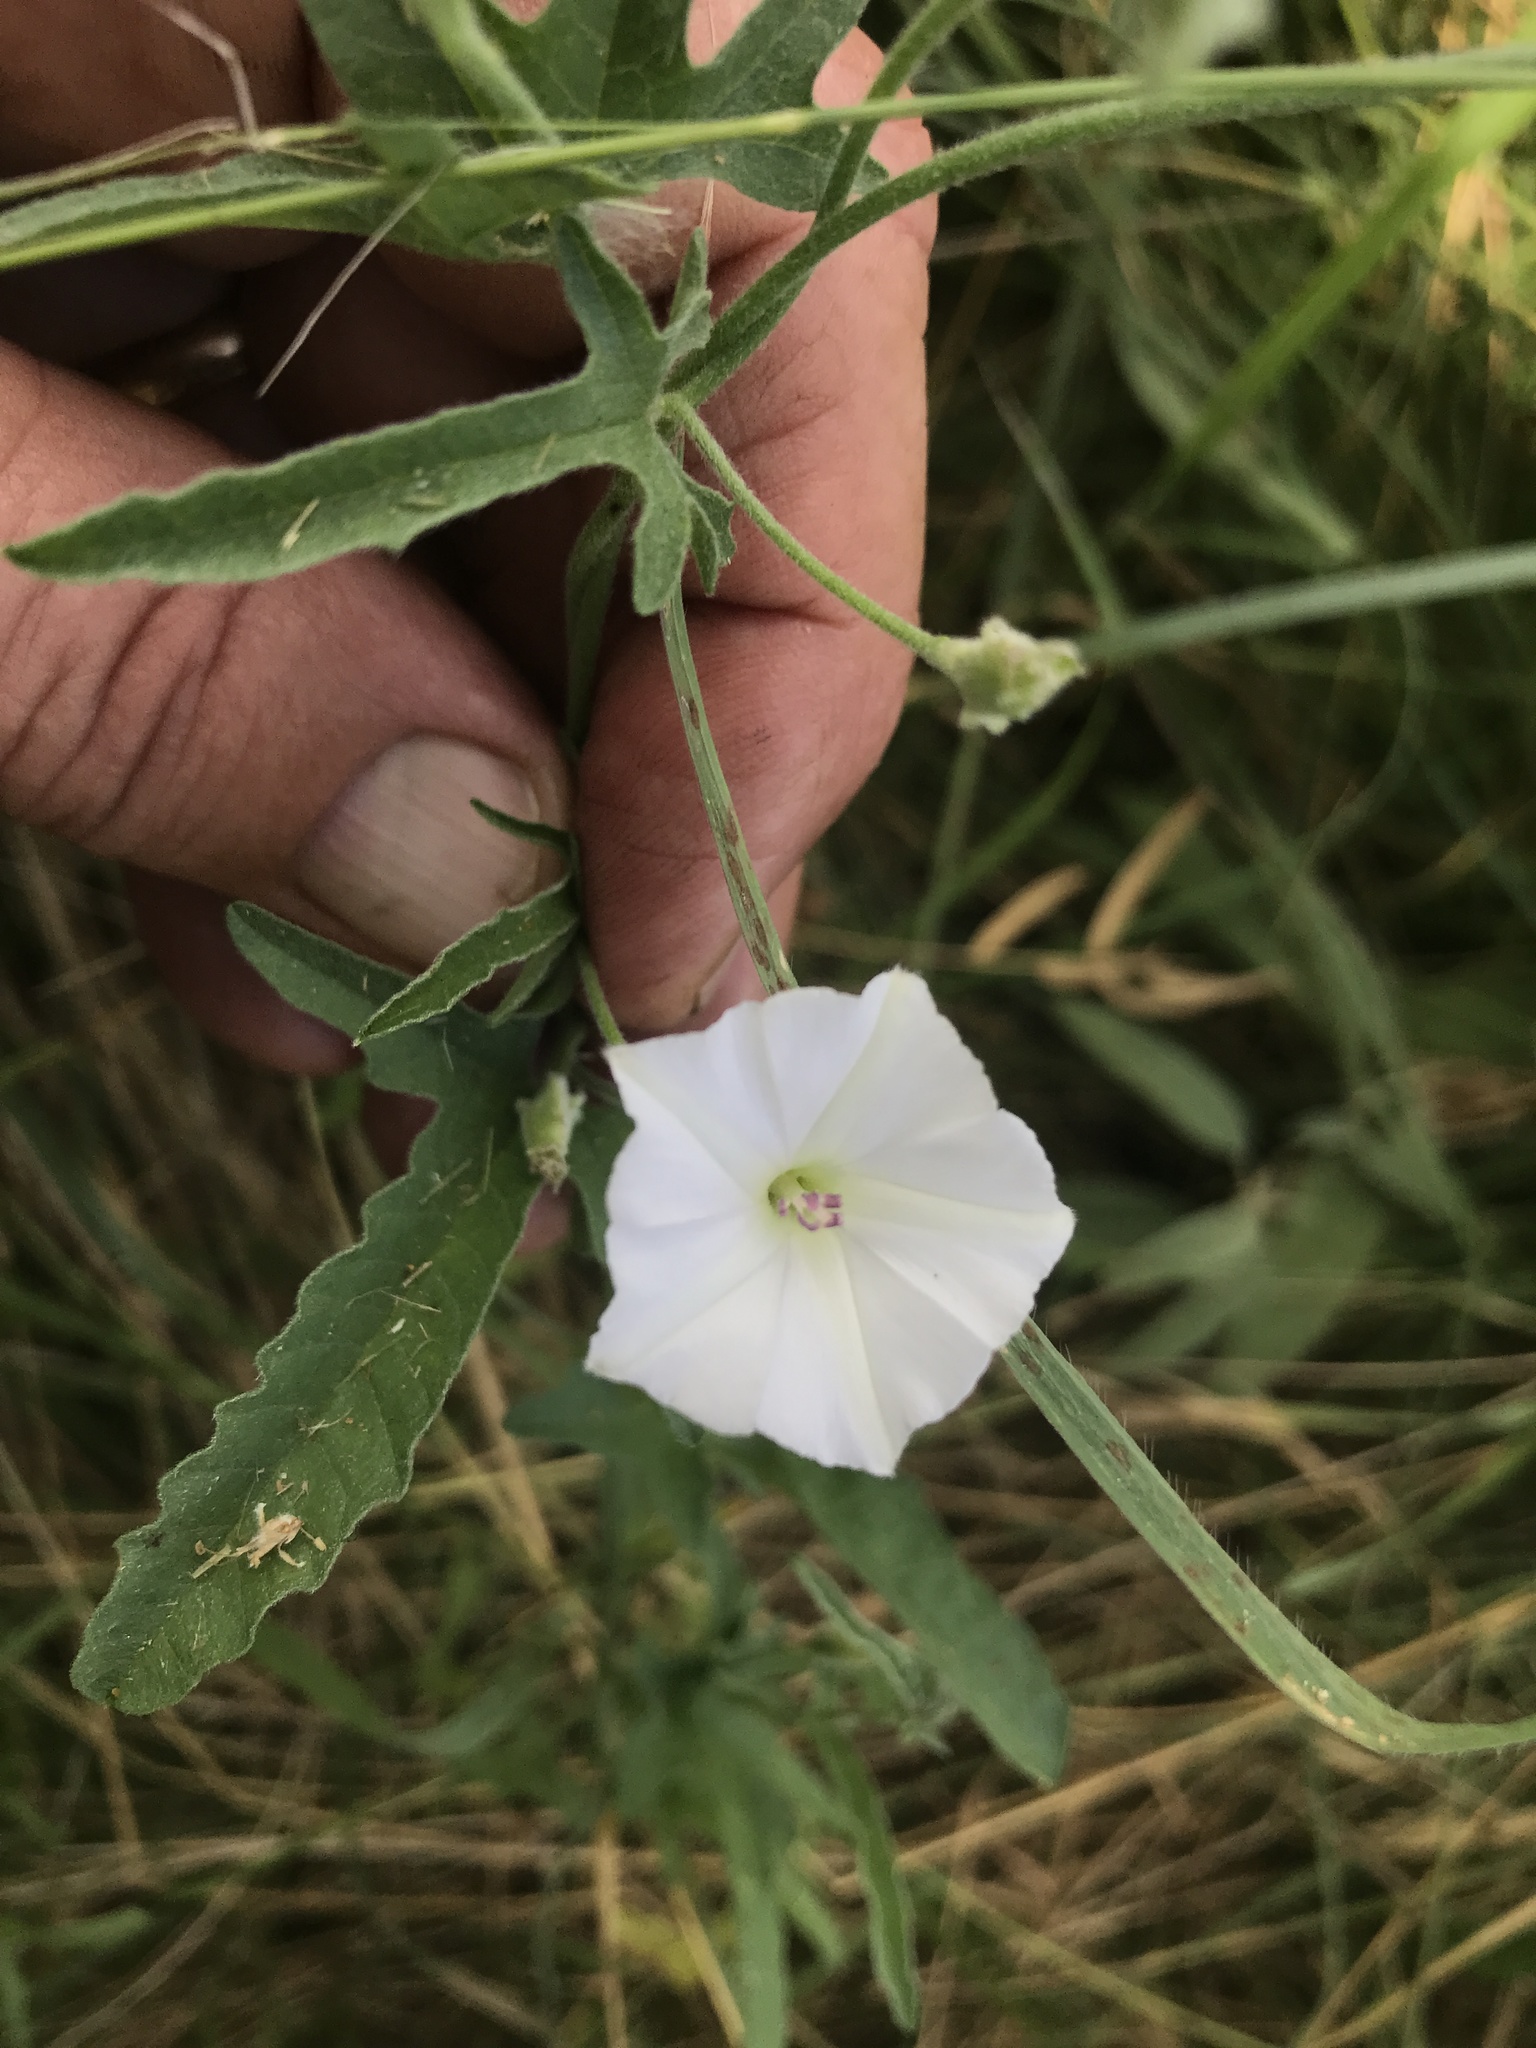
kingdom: Plantae
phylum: Tracheophyta
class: Magnoliopsida
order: Solanales
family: Convolvulaceae
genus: Convolvulus
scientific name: Convolvulus equitans
